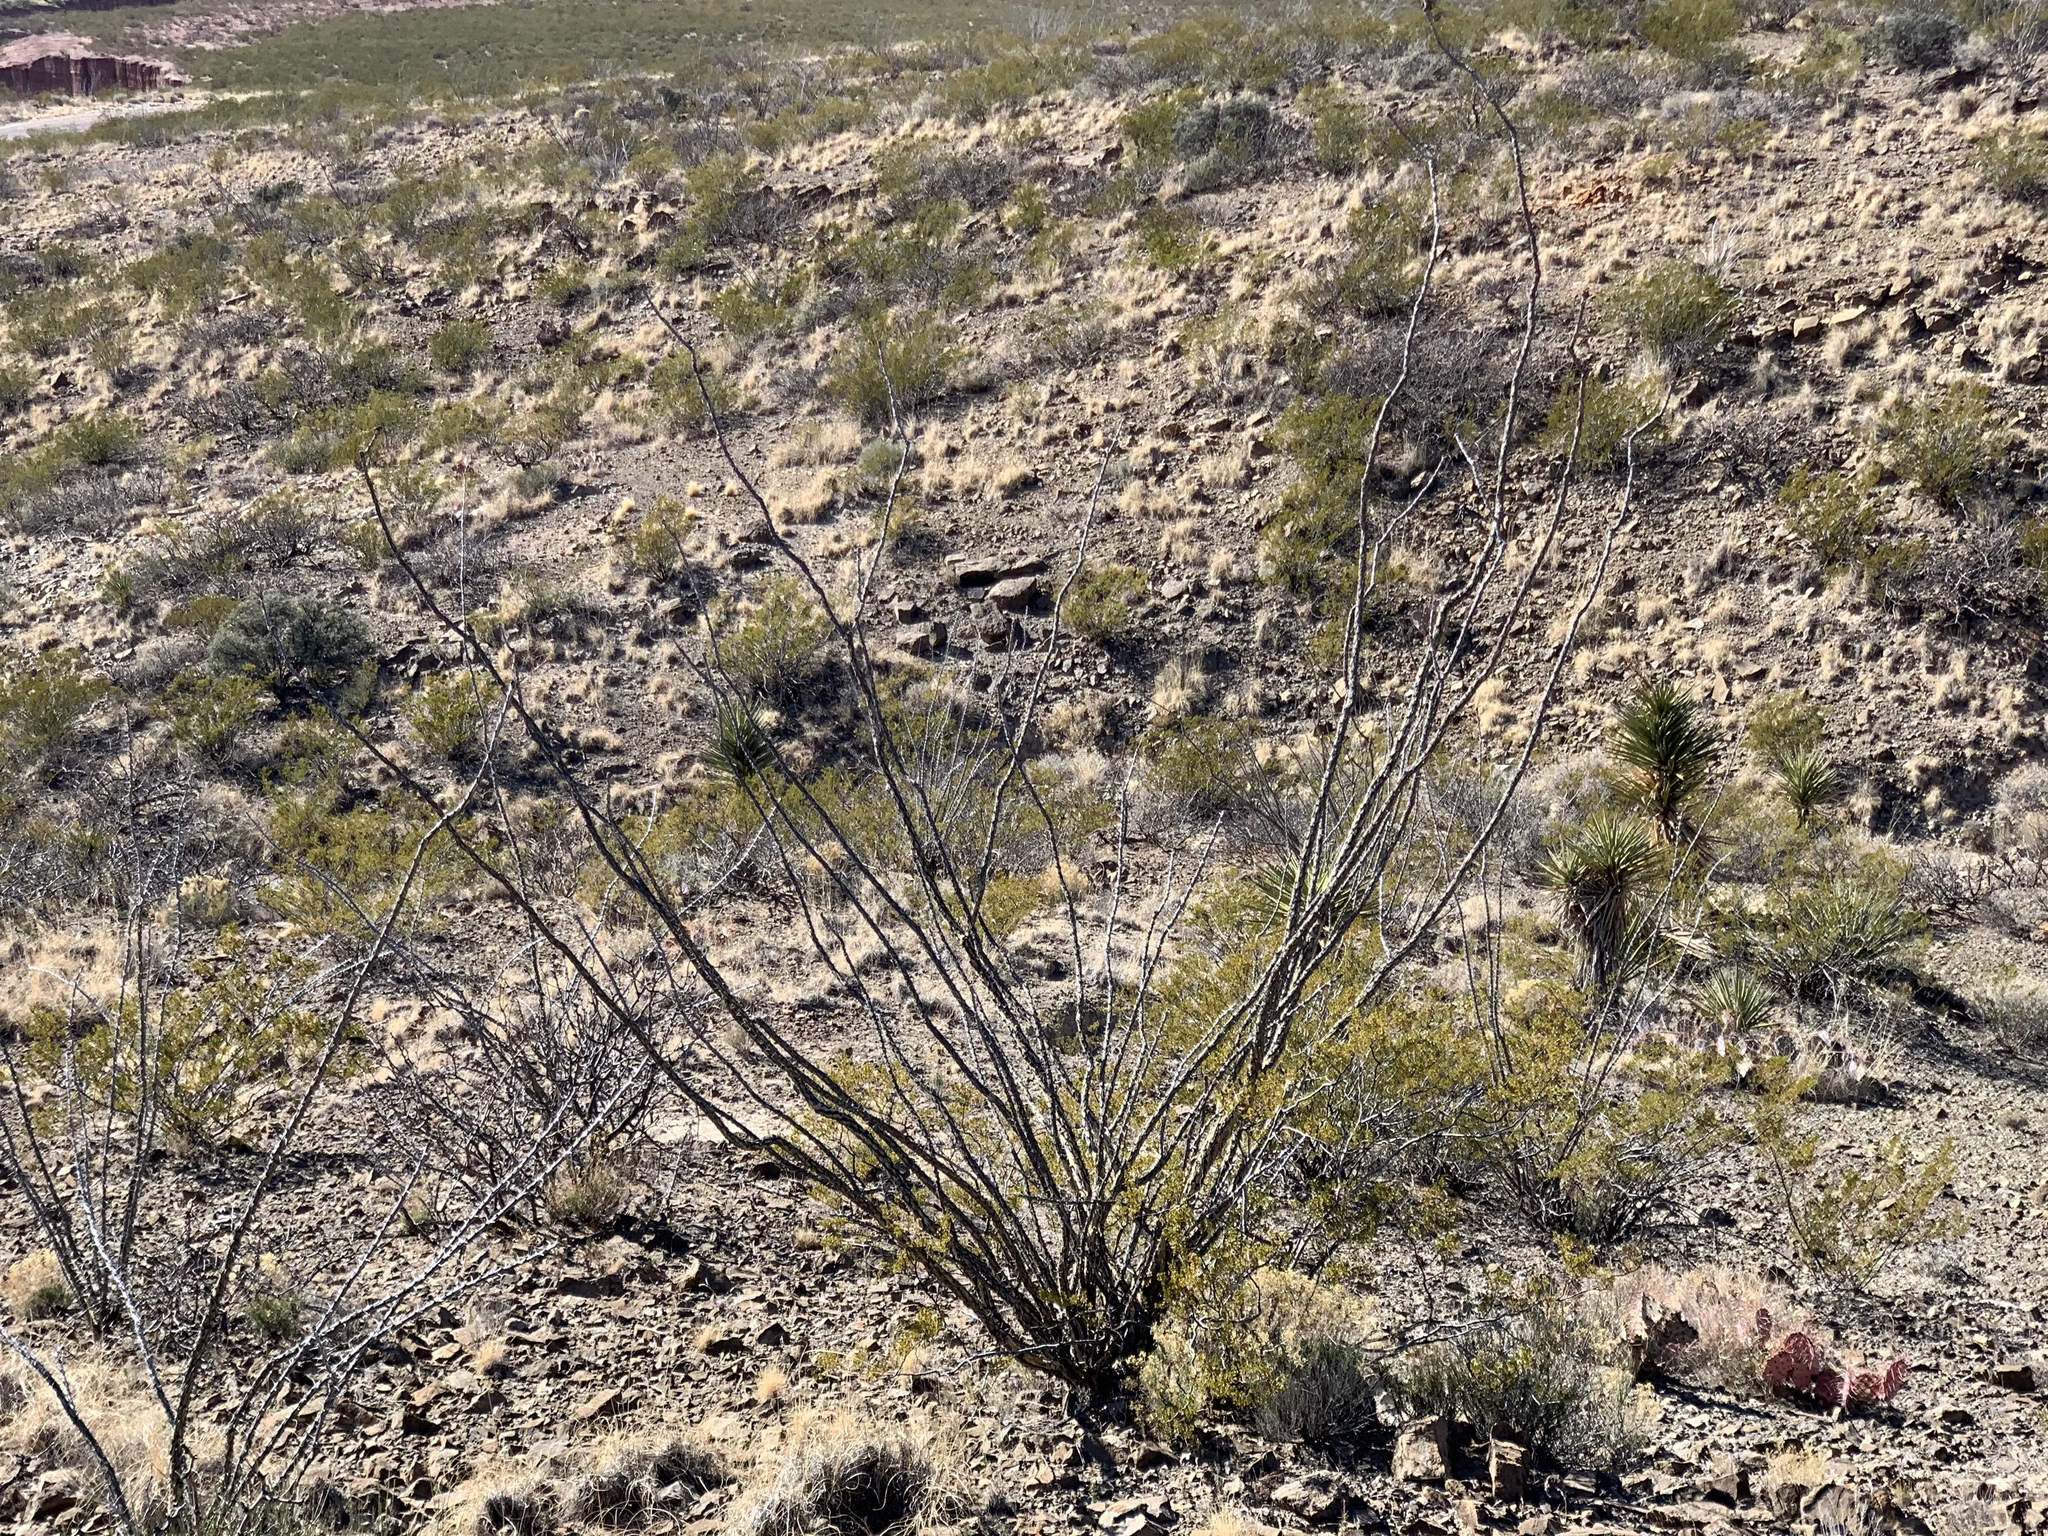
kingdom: Plantae
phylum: Tracheophyta
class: Magnoliopsida
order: Ericales
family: Fouquieriaceae
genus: Fouquieria
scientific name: Fouquieria splendens
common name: Vine-cactus
